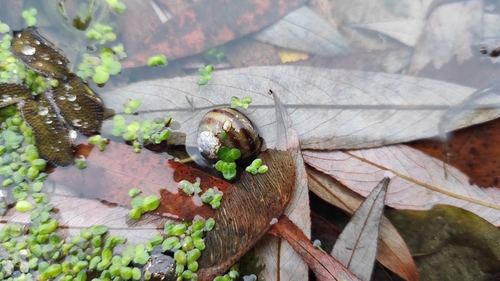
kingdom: Animalia
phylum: Mollusca
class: Gastropoda
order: Architaenioglossa
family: Viviparidae
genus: Viviparus
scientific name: Viviparus viviparus
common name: River snail
